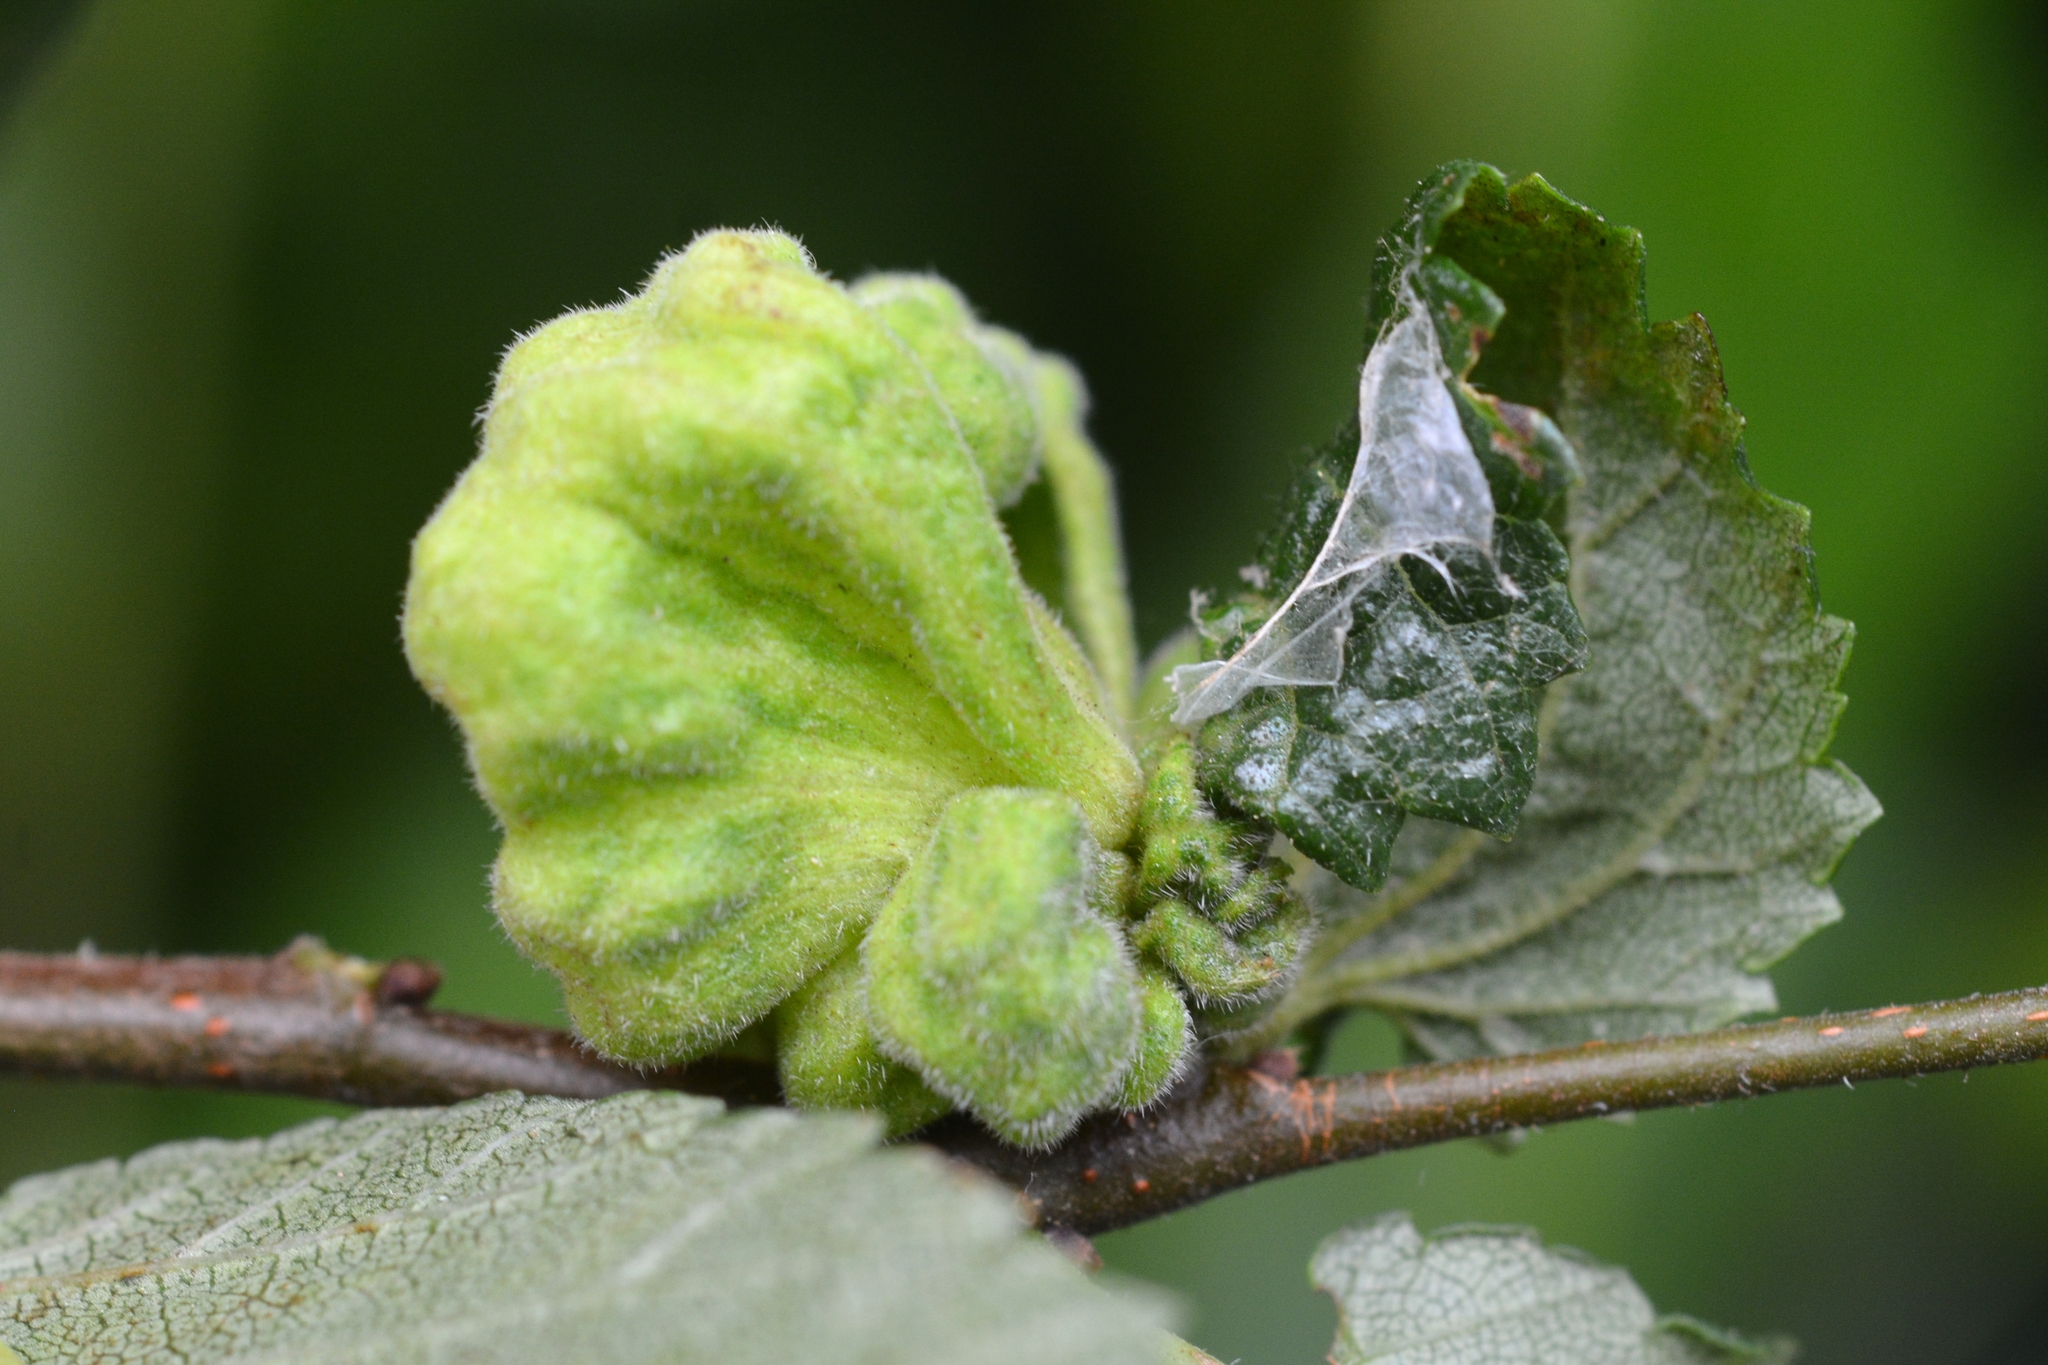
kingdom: Animalia
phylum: Arthropoda
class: Insecta
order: Hemiptera
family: Aphididae
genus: Eriosoma
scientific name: Eriosoma lanuginosum
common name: Aphid
